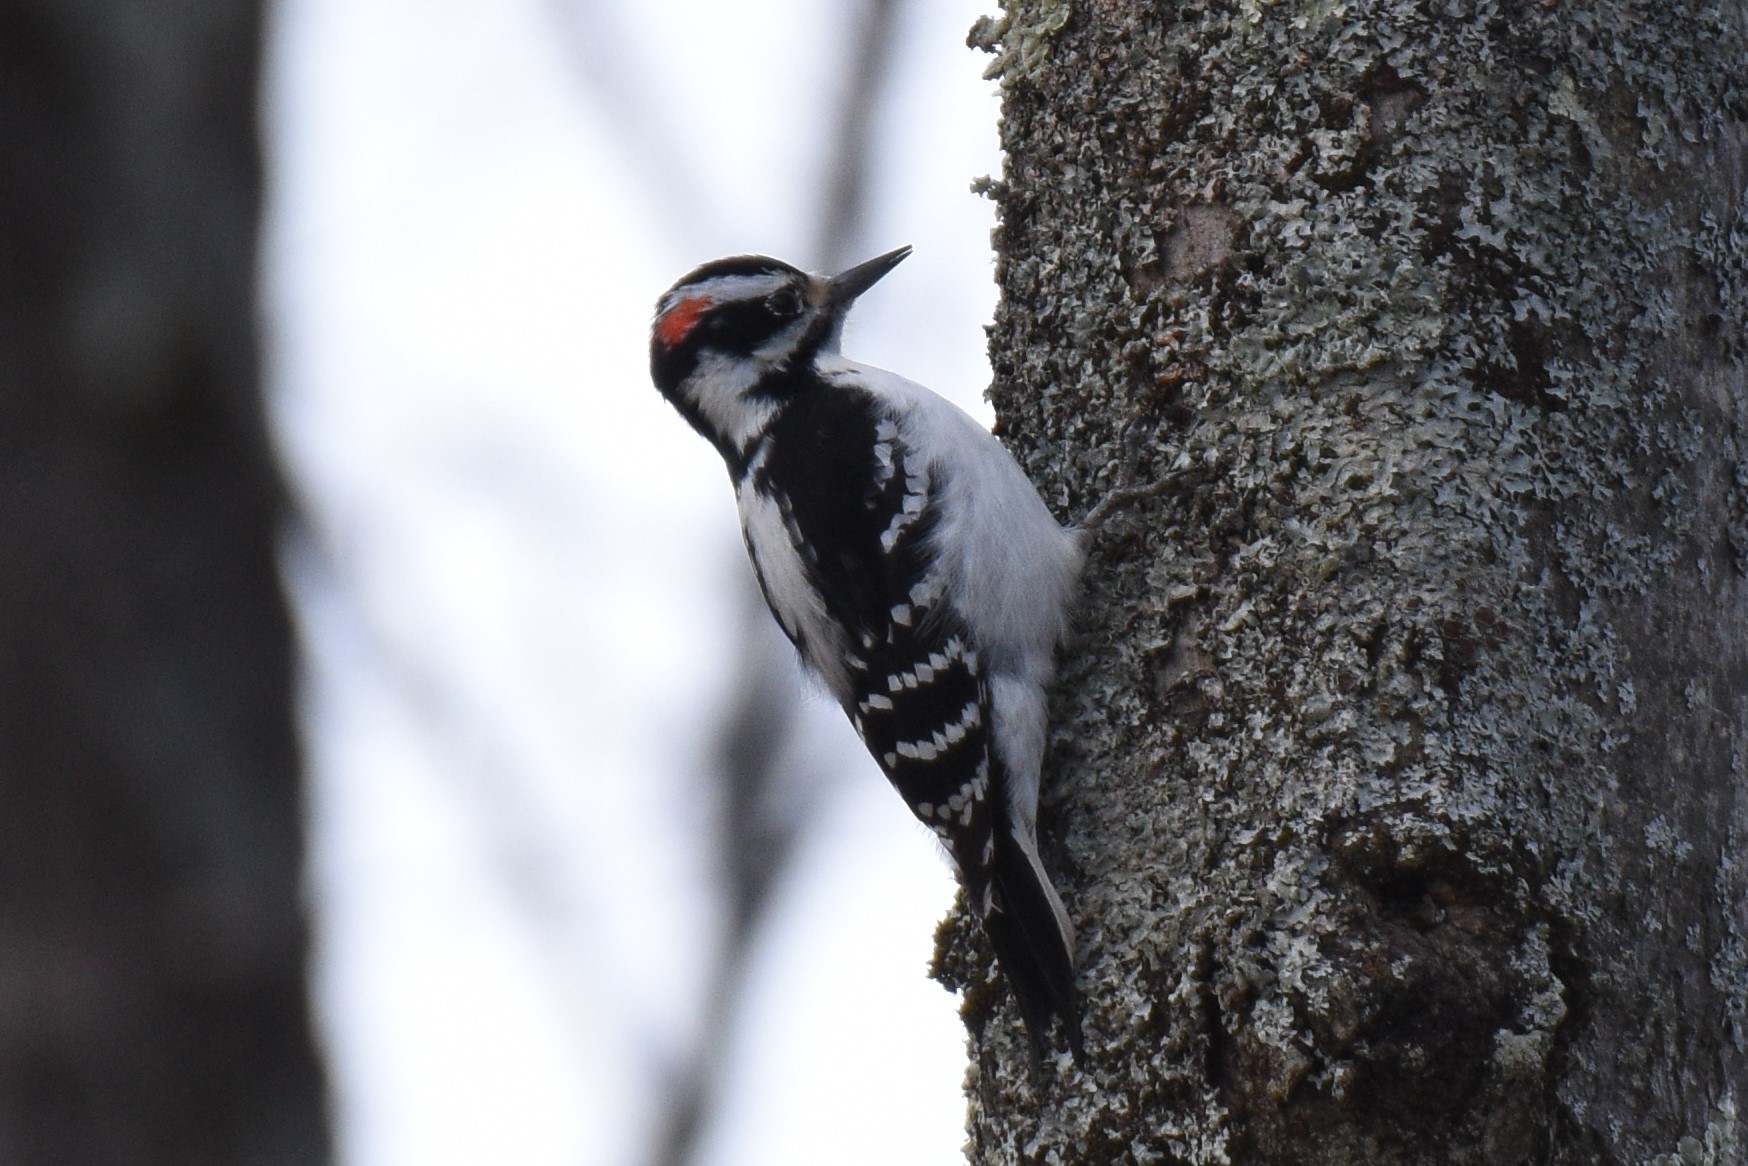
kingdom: Animalia
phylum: Chordata
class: Aves
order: Piciformes
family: Picidae
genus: Leuconotopicus
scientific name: Leuconotopicus villosus
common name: Hairy woodpecker
